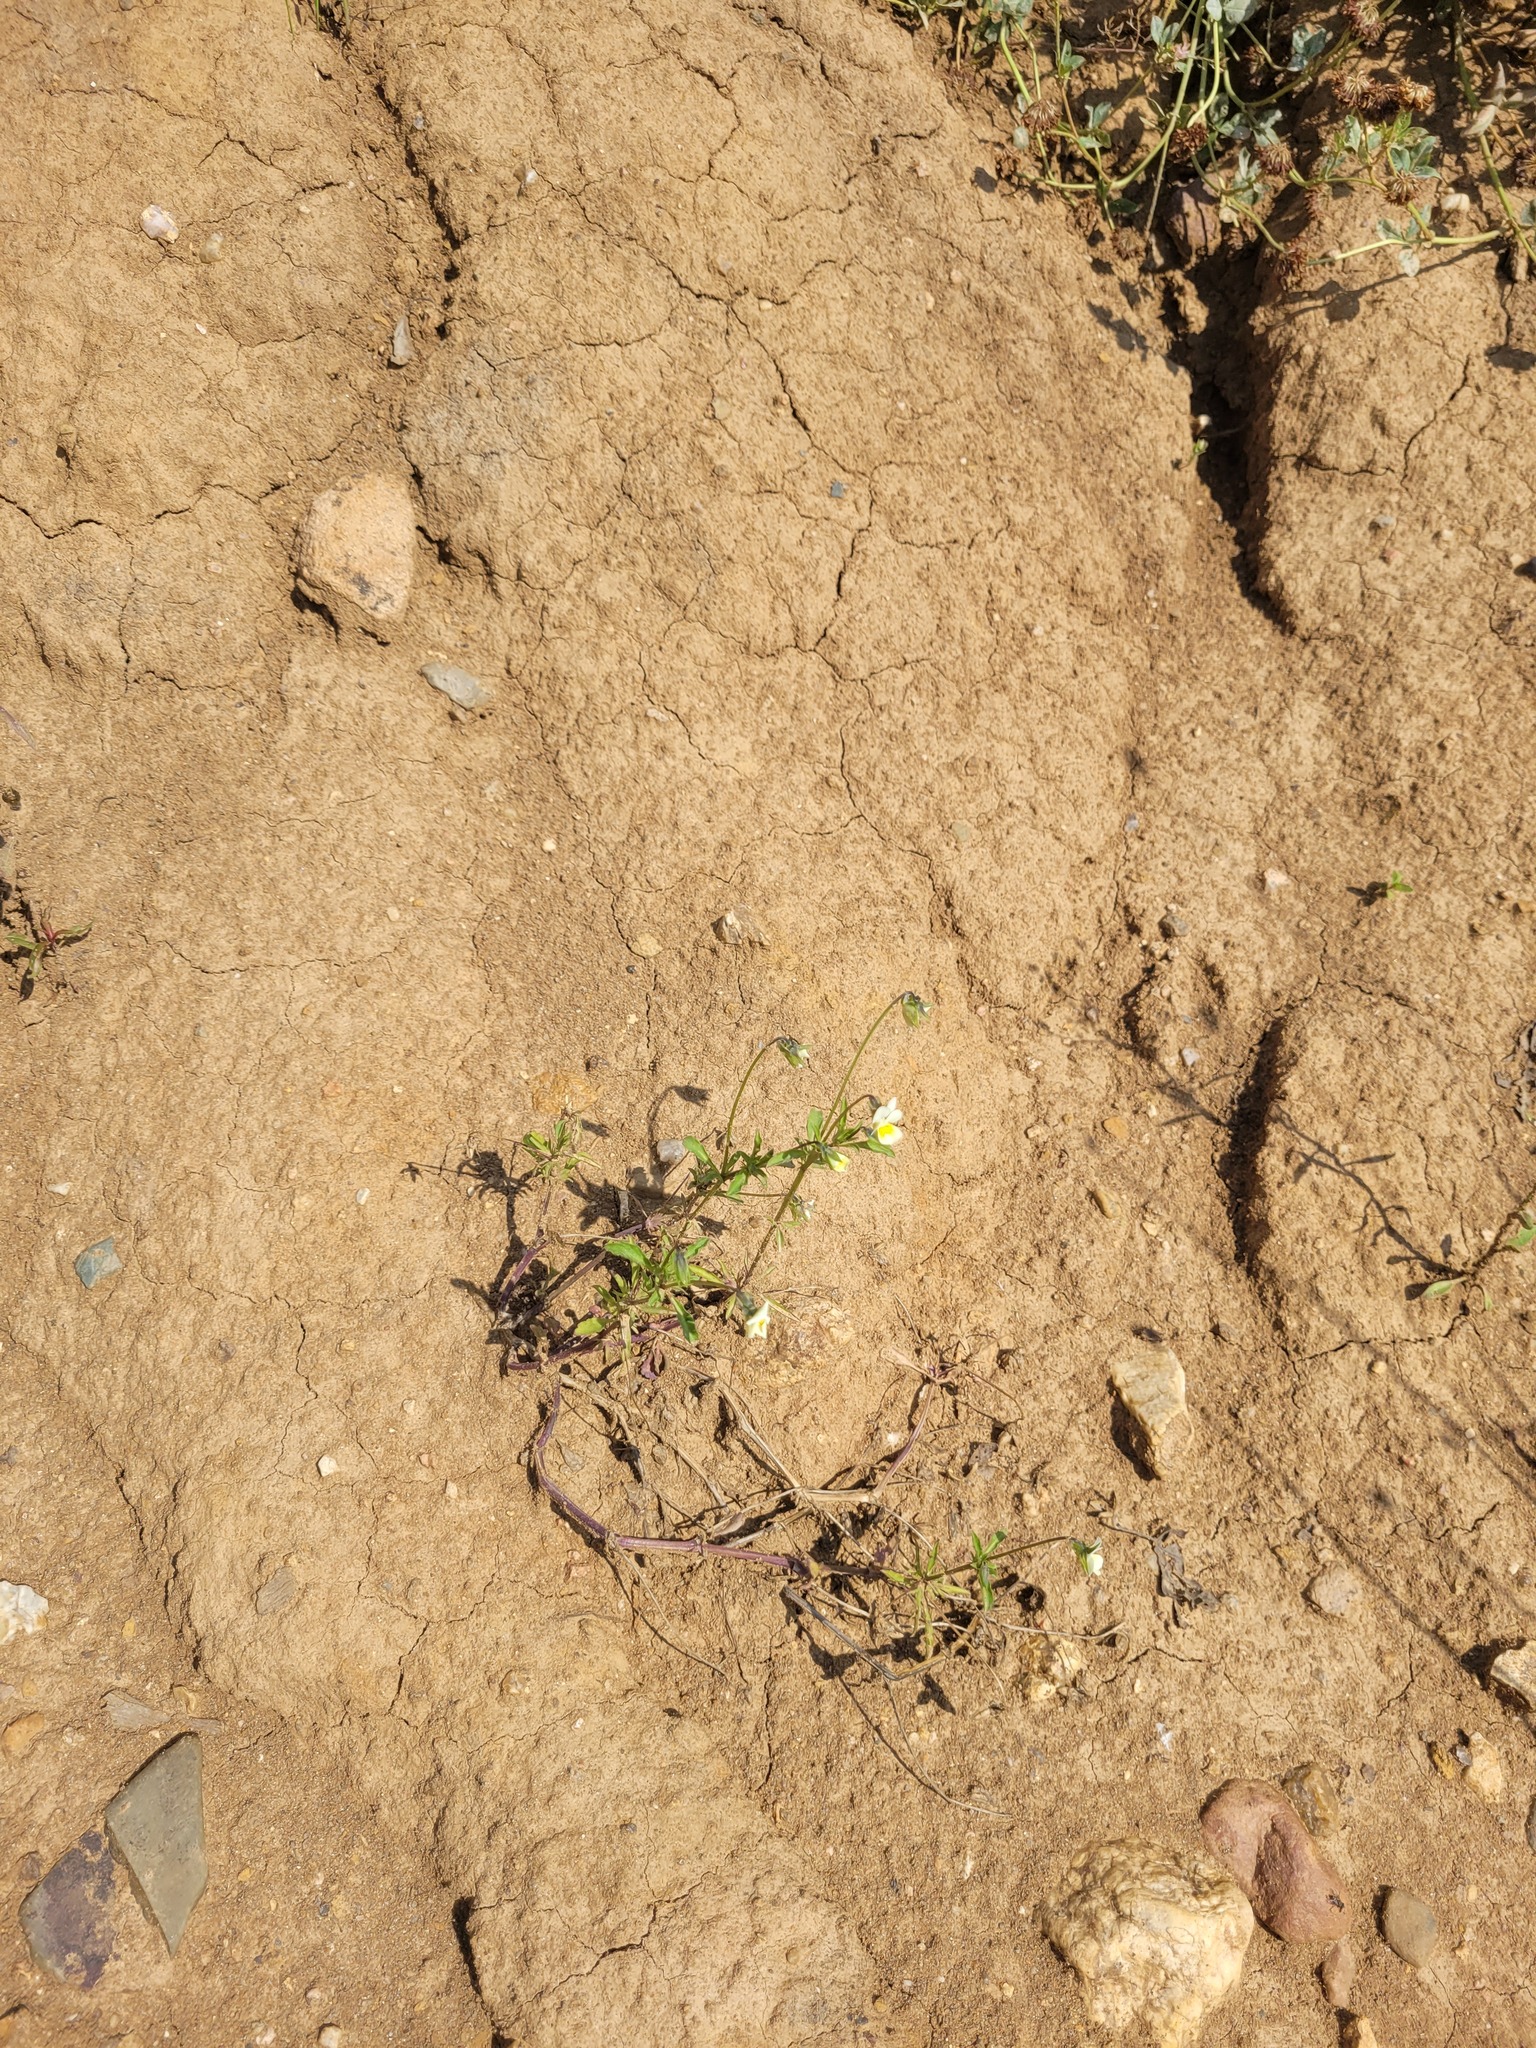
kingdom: Plantae
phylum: Tracheophyta
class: Magnoliopsida
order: Malpighiales
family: Violaceae
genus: Viola
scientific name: Viola arvensis
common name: Field pansy
